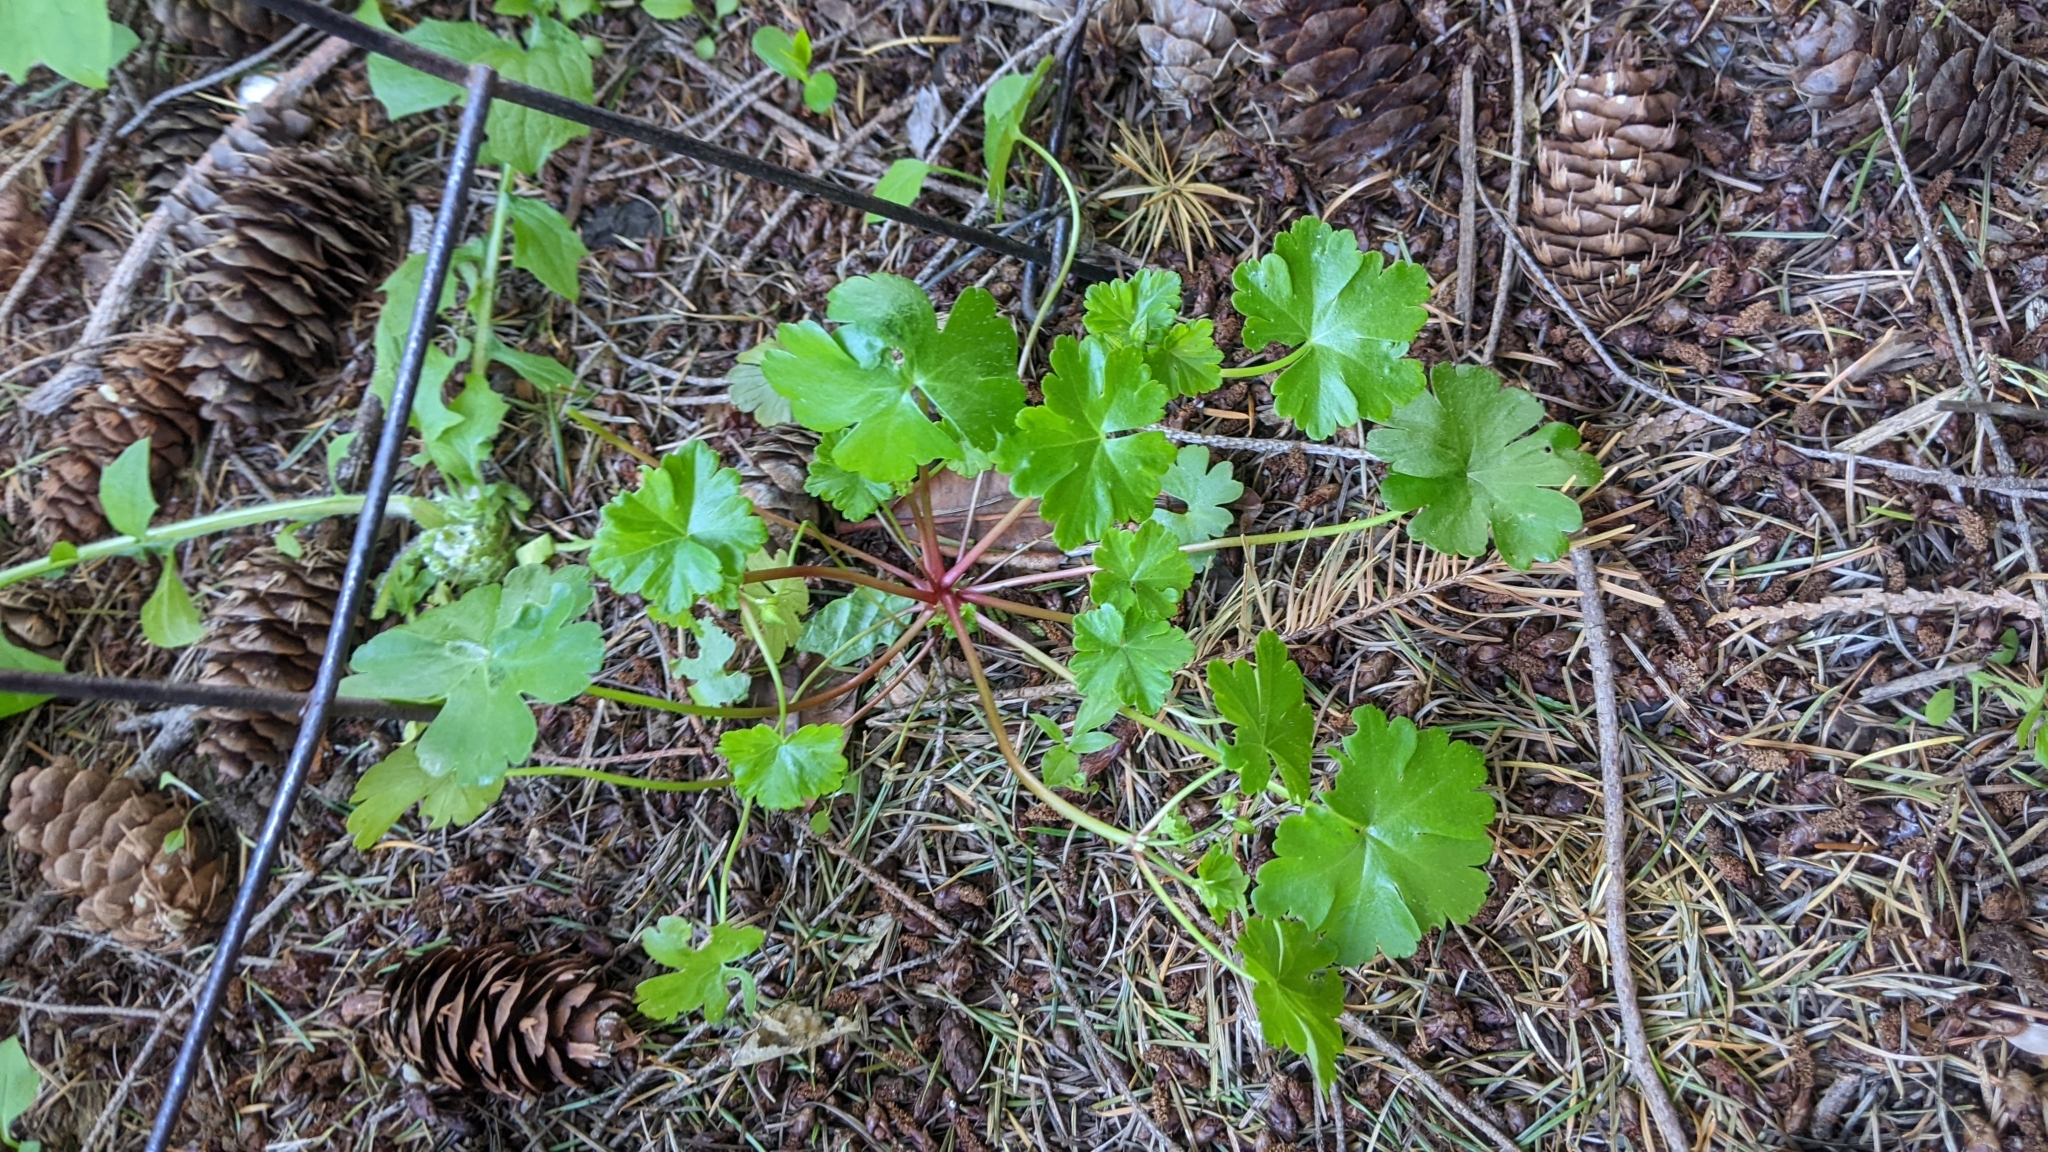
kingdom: Plantae
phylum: Tracheophyta
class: Magnoliopsida
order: Geraniales
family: Geraniaceae
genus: Geranium
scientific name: Geranium lucidum
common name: Shining crane's-bill
